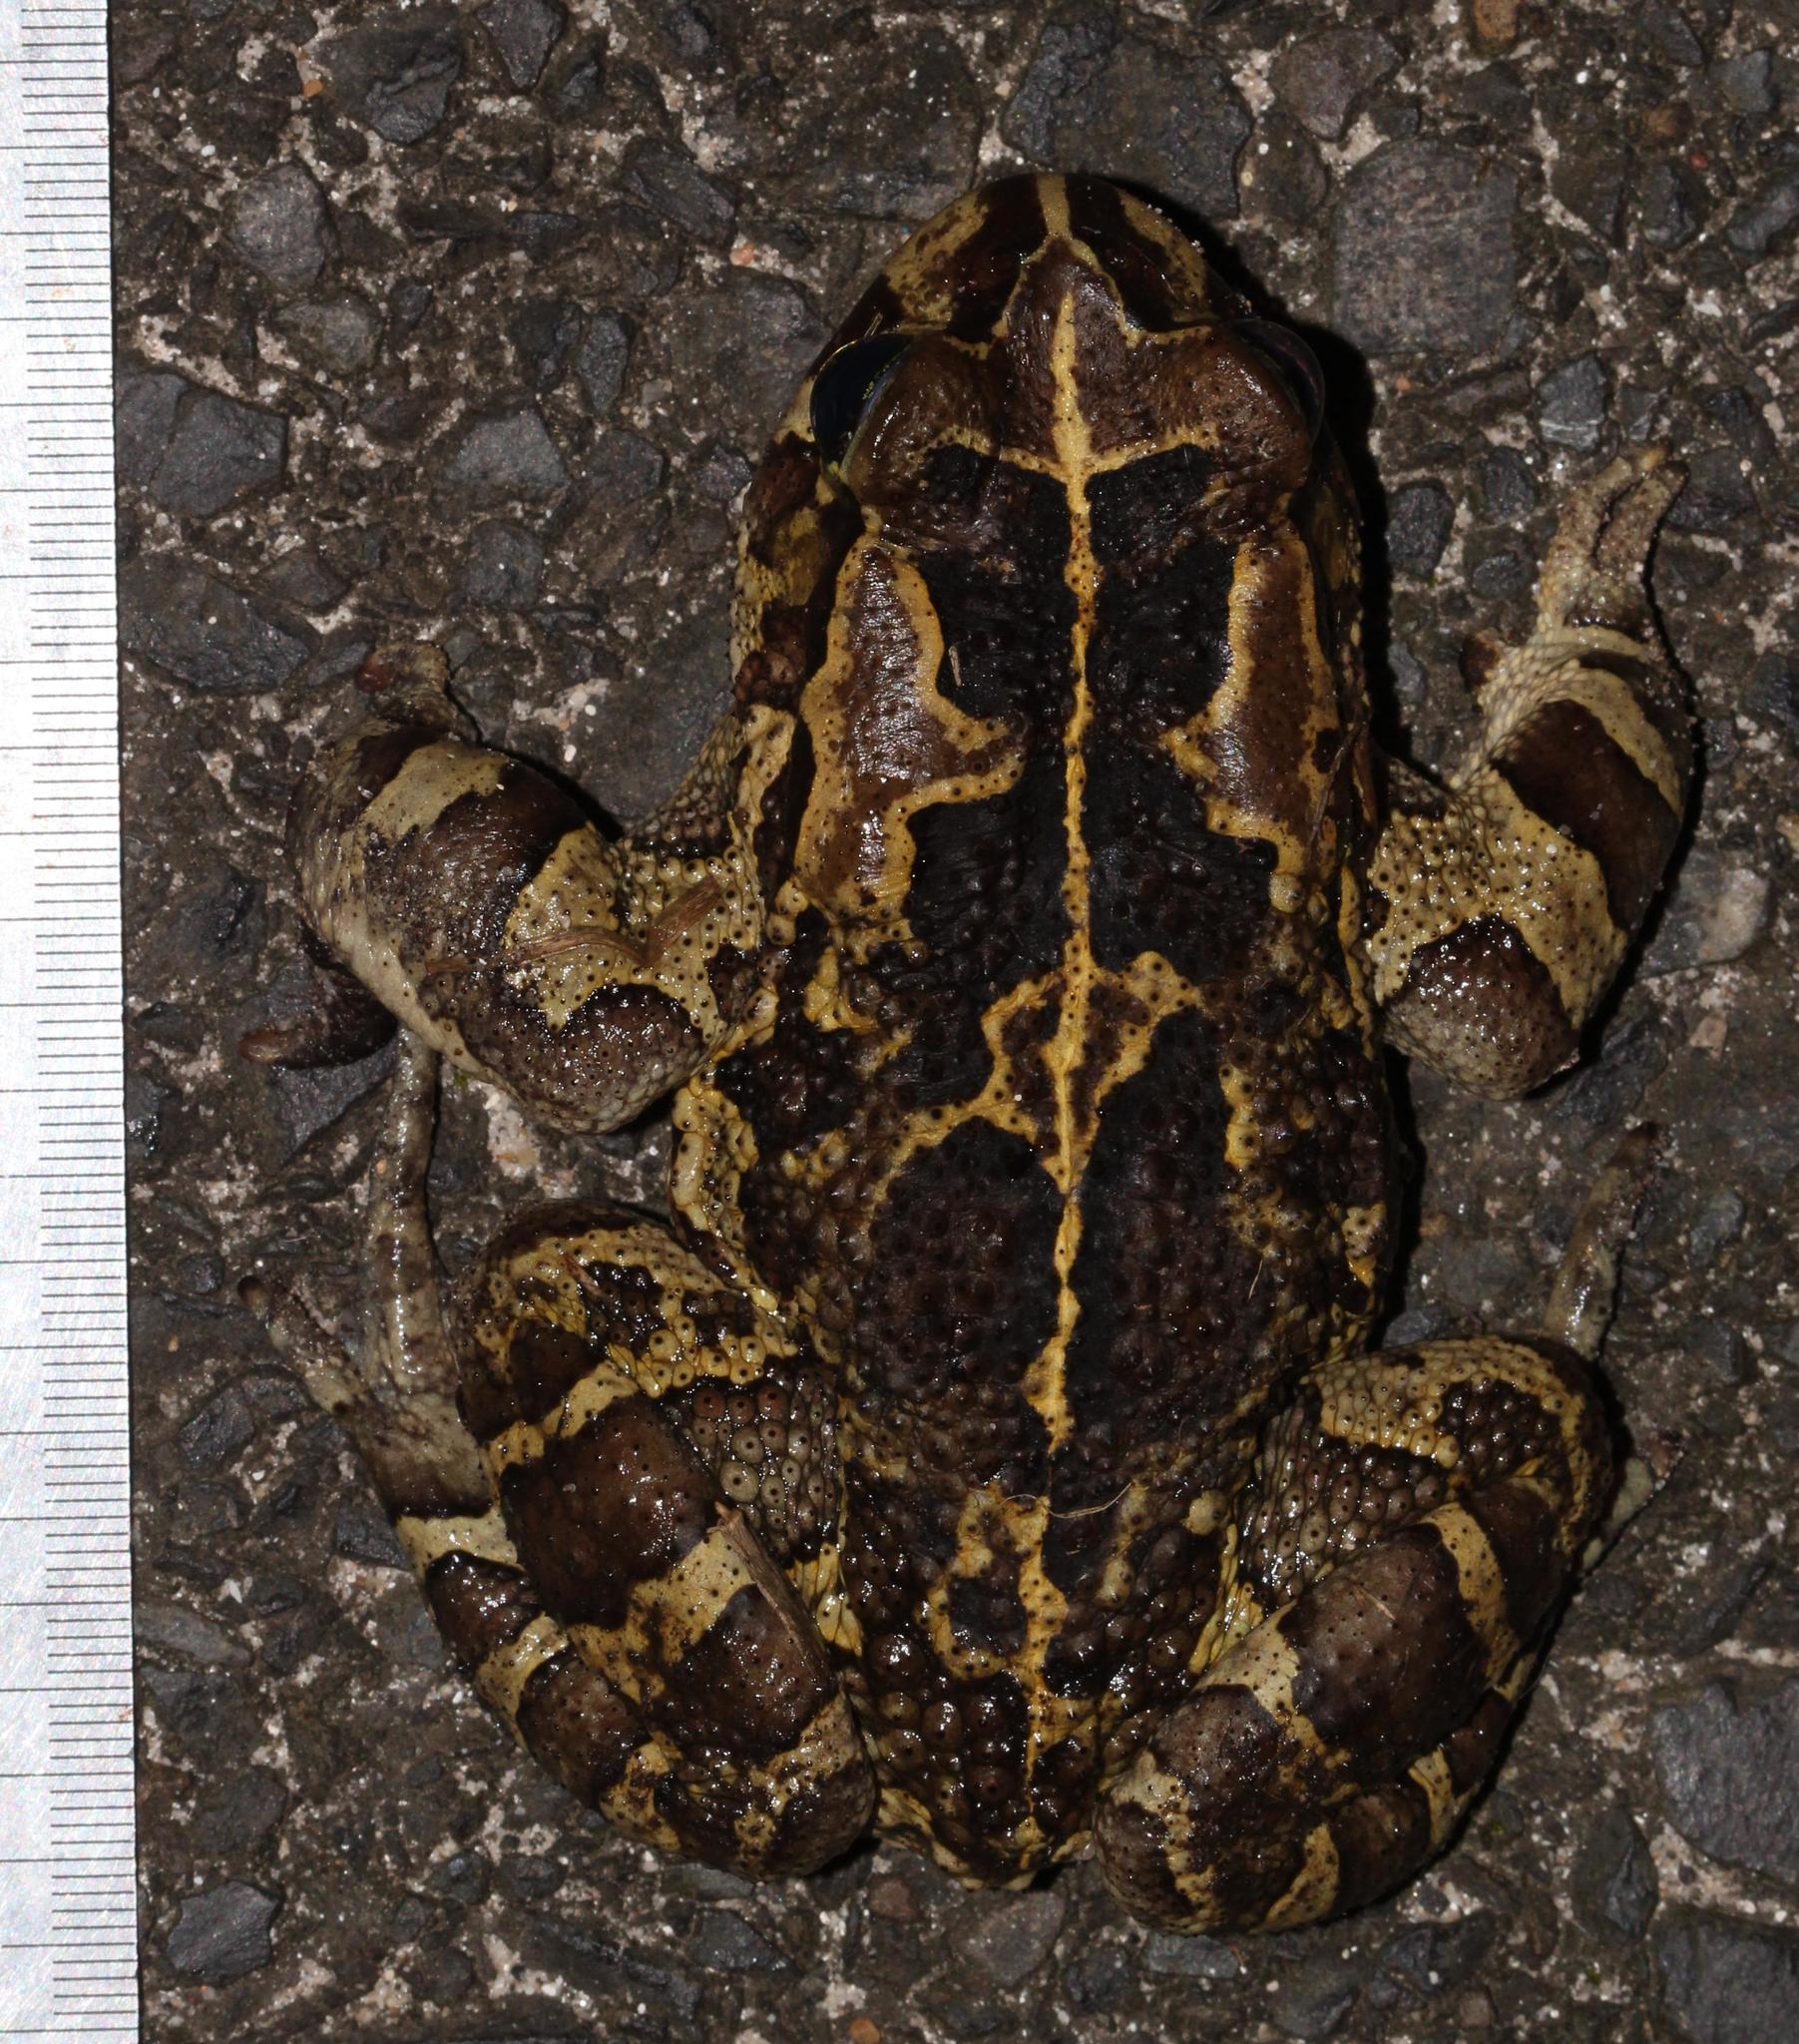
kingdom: Animalia
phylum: Chordata
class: Amphibia
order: Anura
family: Bufonidae
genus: Sclerophrys
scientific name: Sclerophrys pantherina
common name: Panther toad
